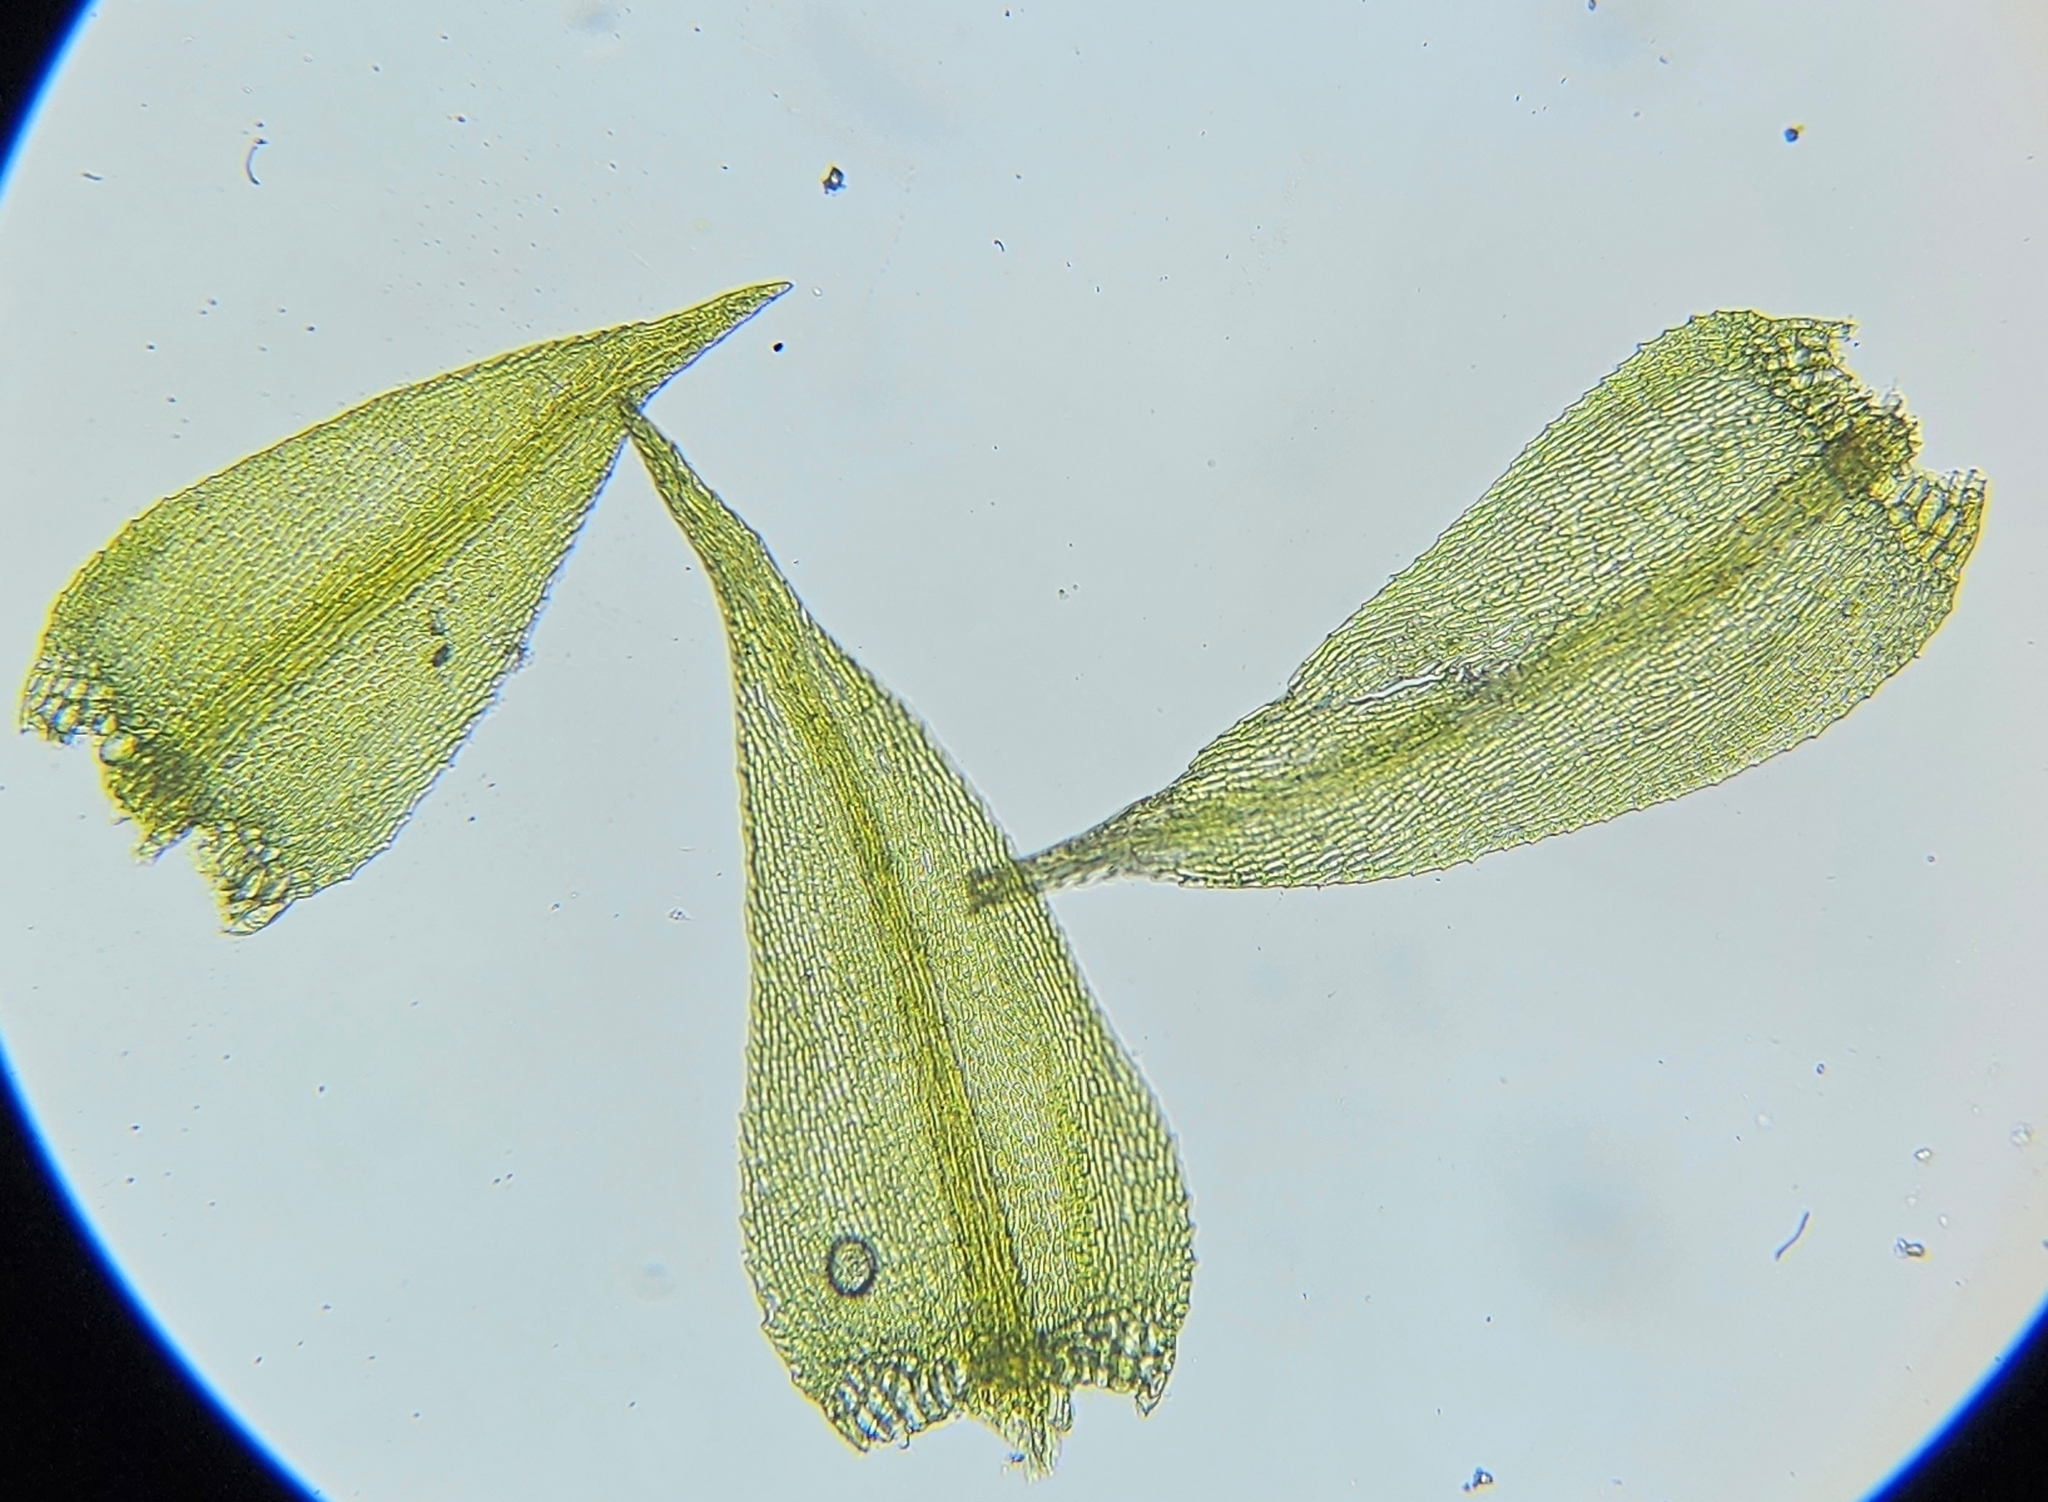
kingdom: Plantae
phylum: Bryophyta
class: Bryopsida
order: Hypnales
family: Amblystegiaceae
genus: Cratoneuron
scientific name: Cratoneuron filicinum
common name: Fern-leaved hook moss
